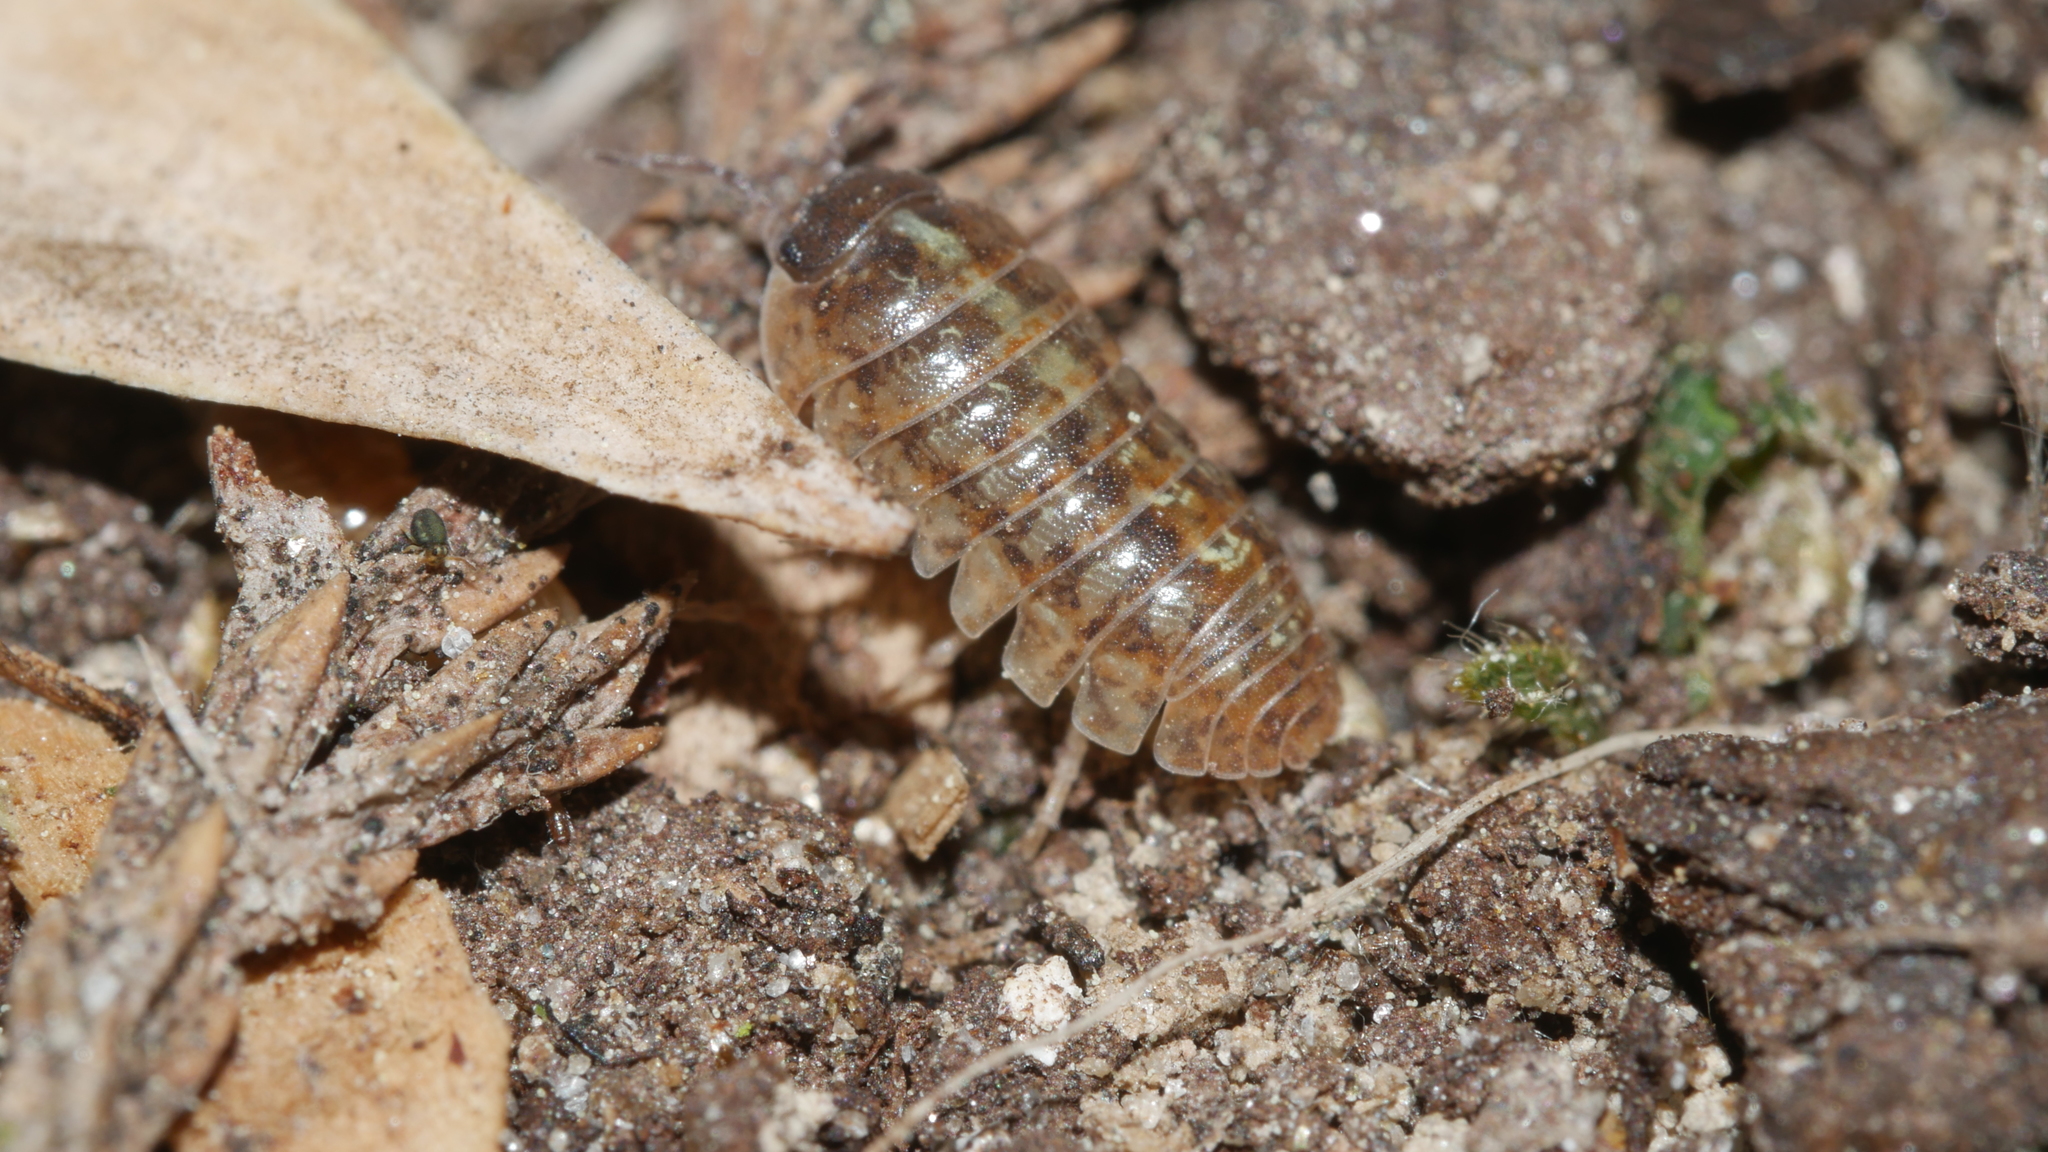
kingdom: Animalia
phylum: Arthropoda
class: Malacostraca
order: Isopoda
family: Armadillidiidae
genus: Armadillidium
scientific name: Armadillidium vulgare
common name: Common pill woodlouse
